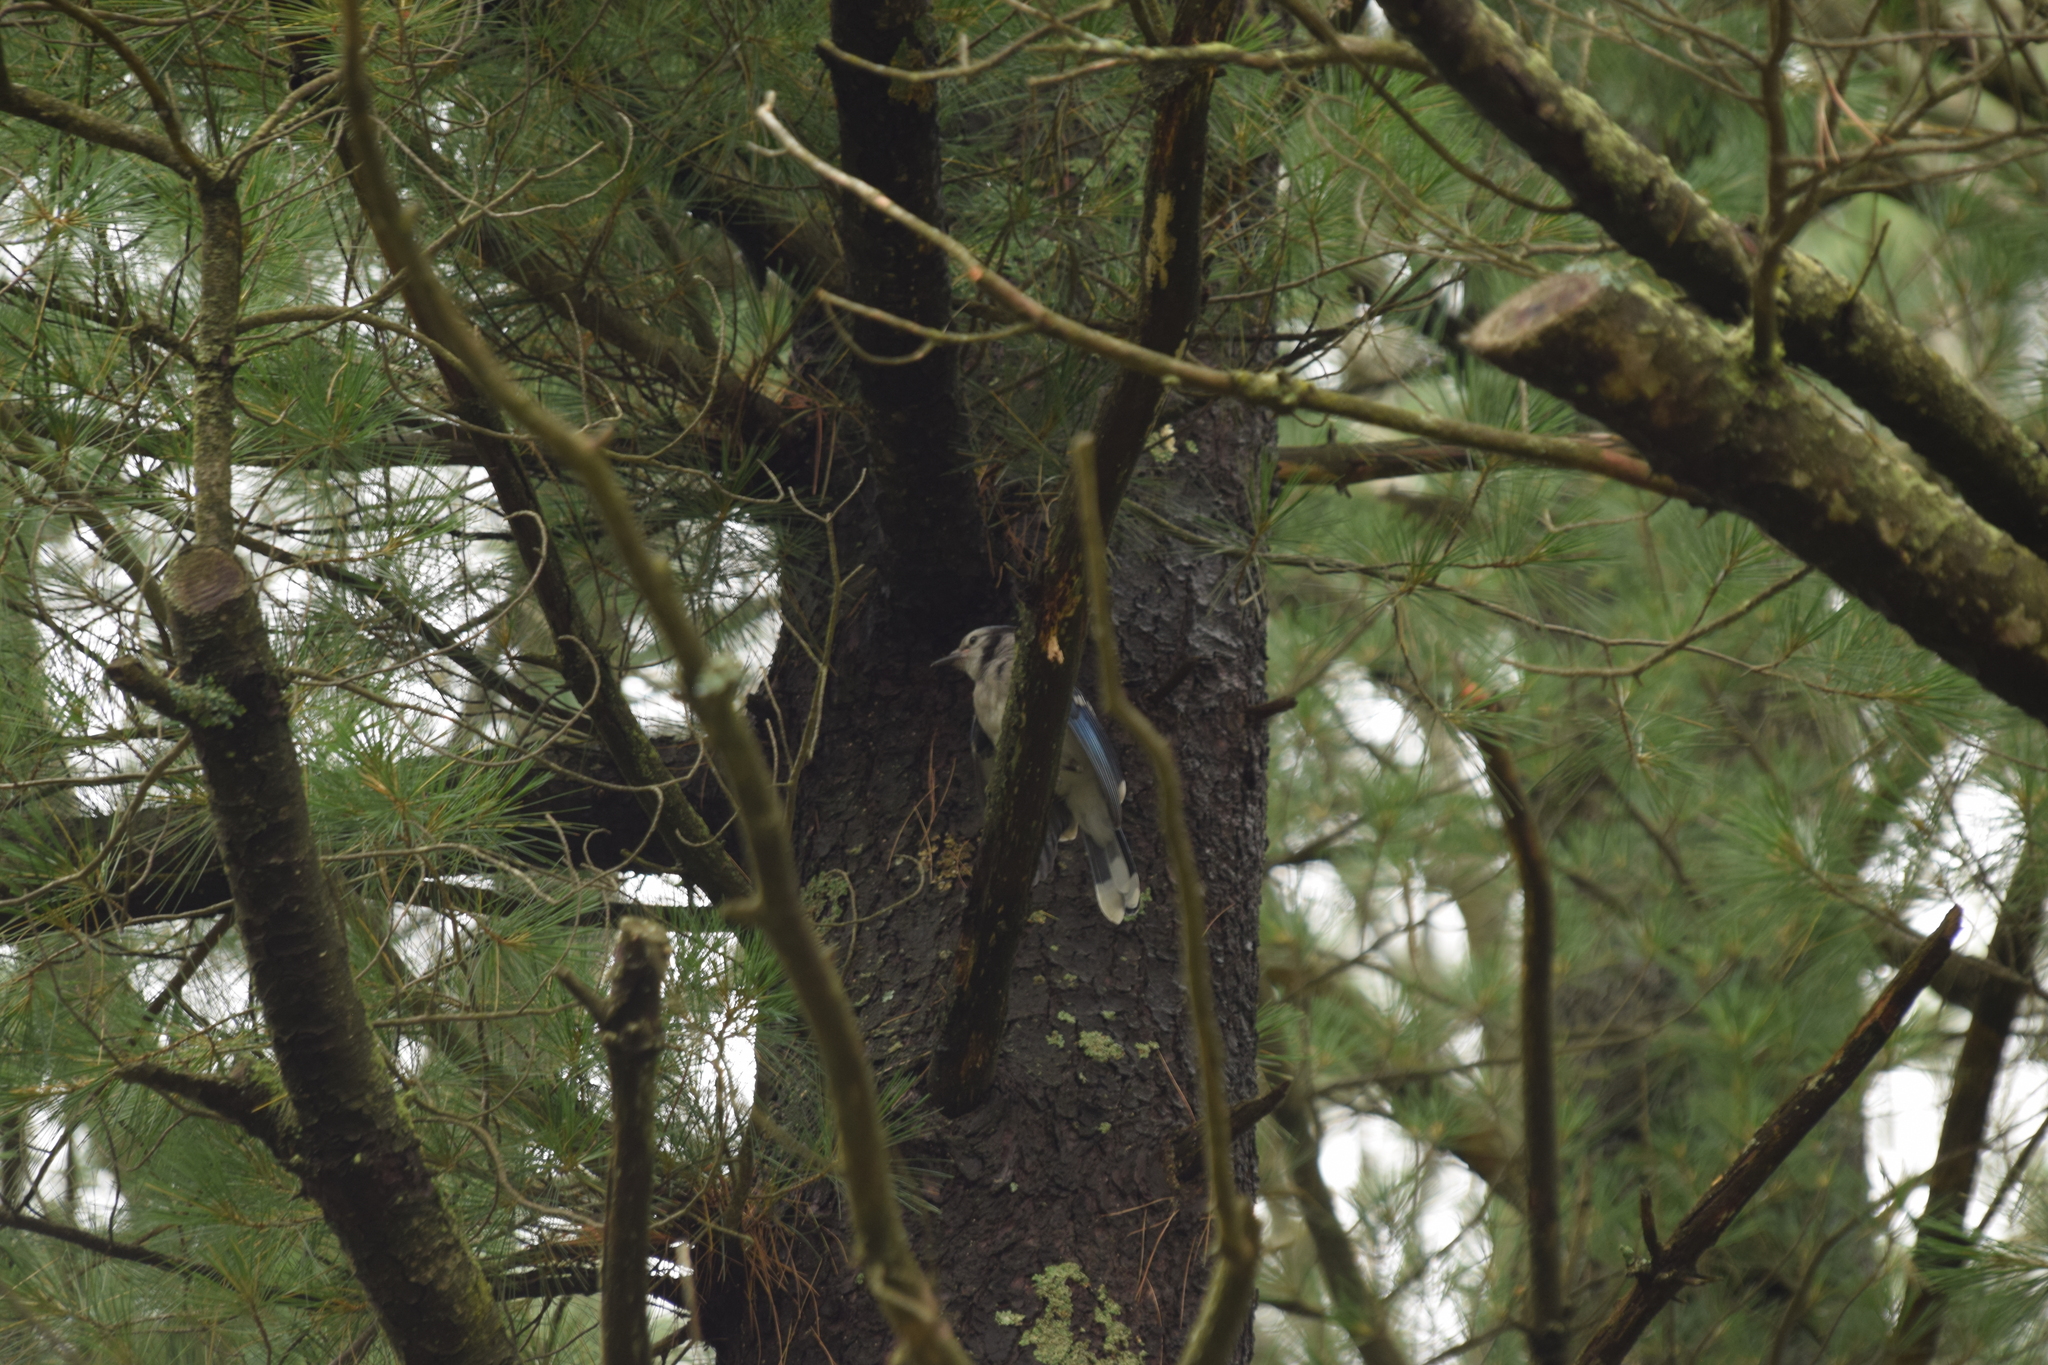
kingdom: Animalia
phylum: Chordata
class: Aves
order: Passeriformes
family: Corvidae
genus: Cyanocitta
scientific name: Cyanocitta cristata
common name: Blue jay
